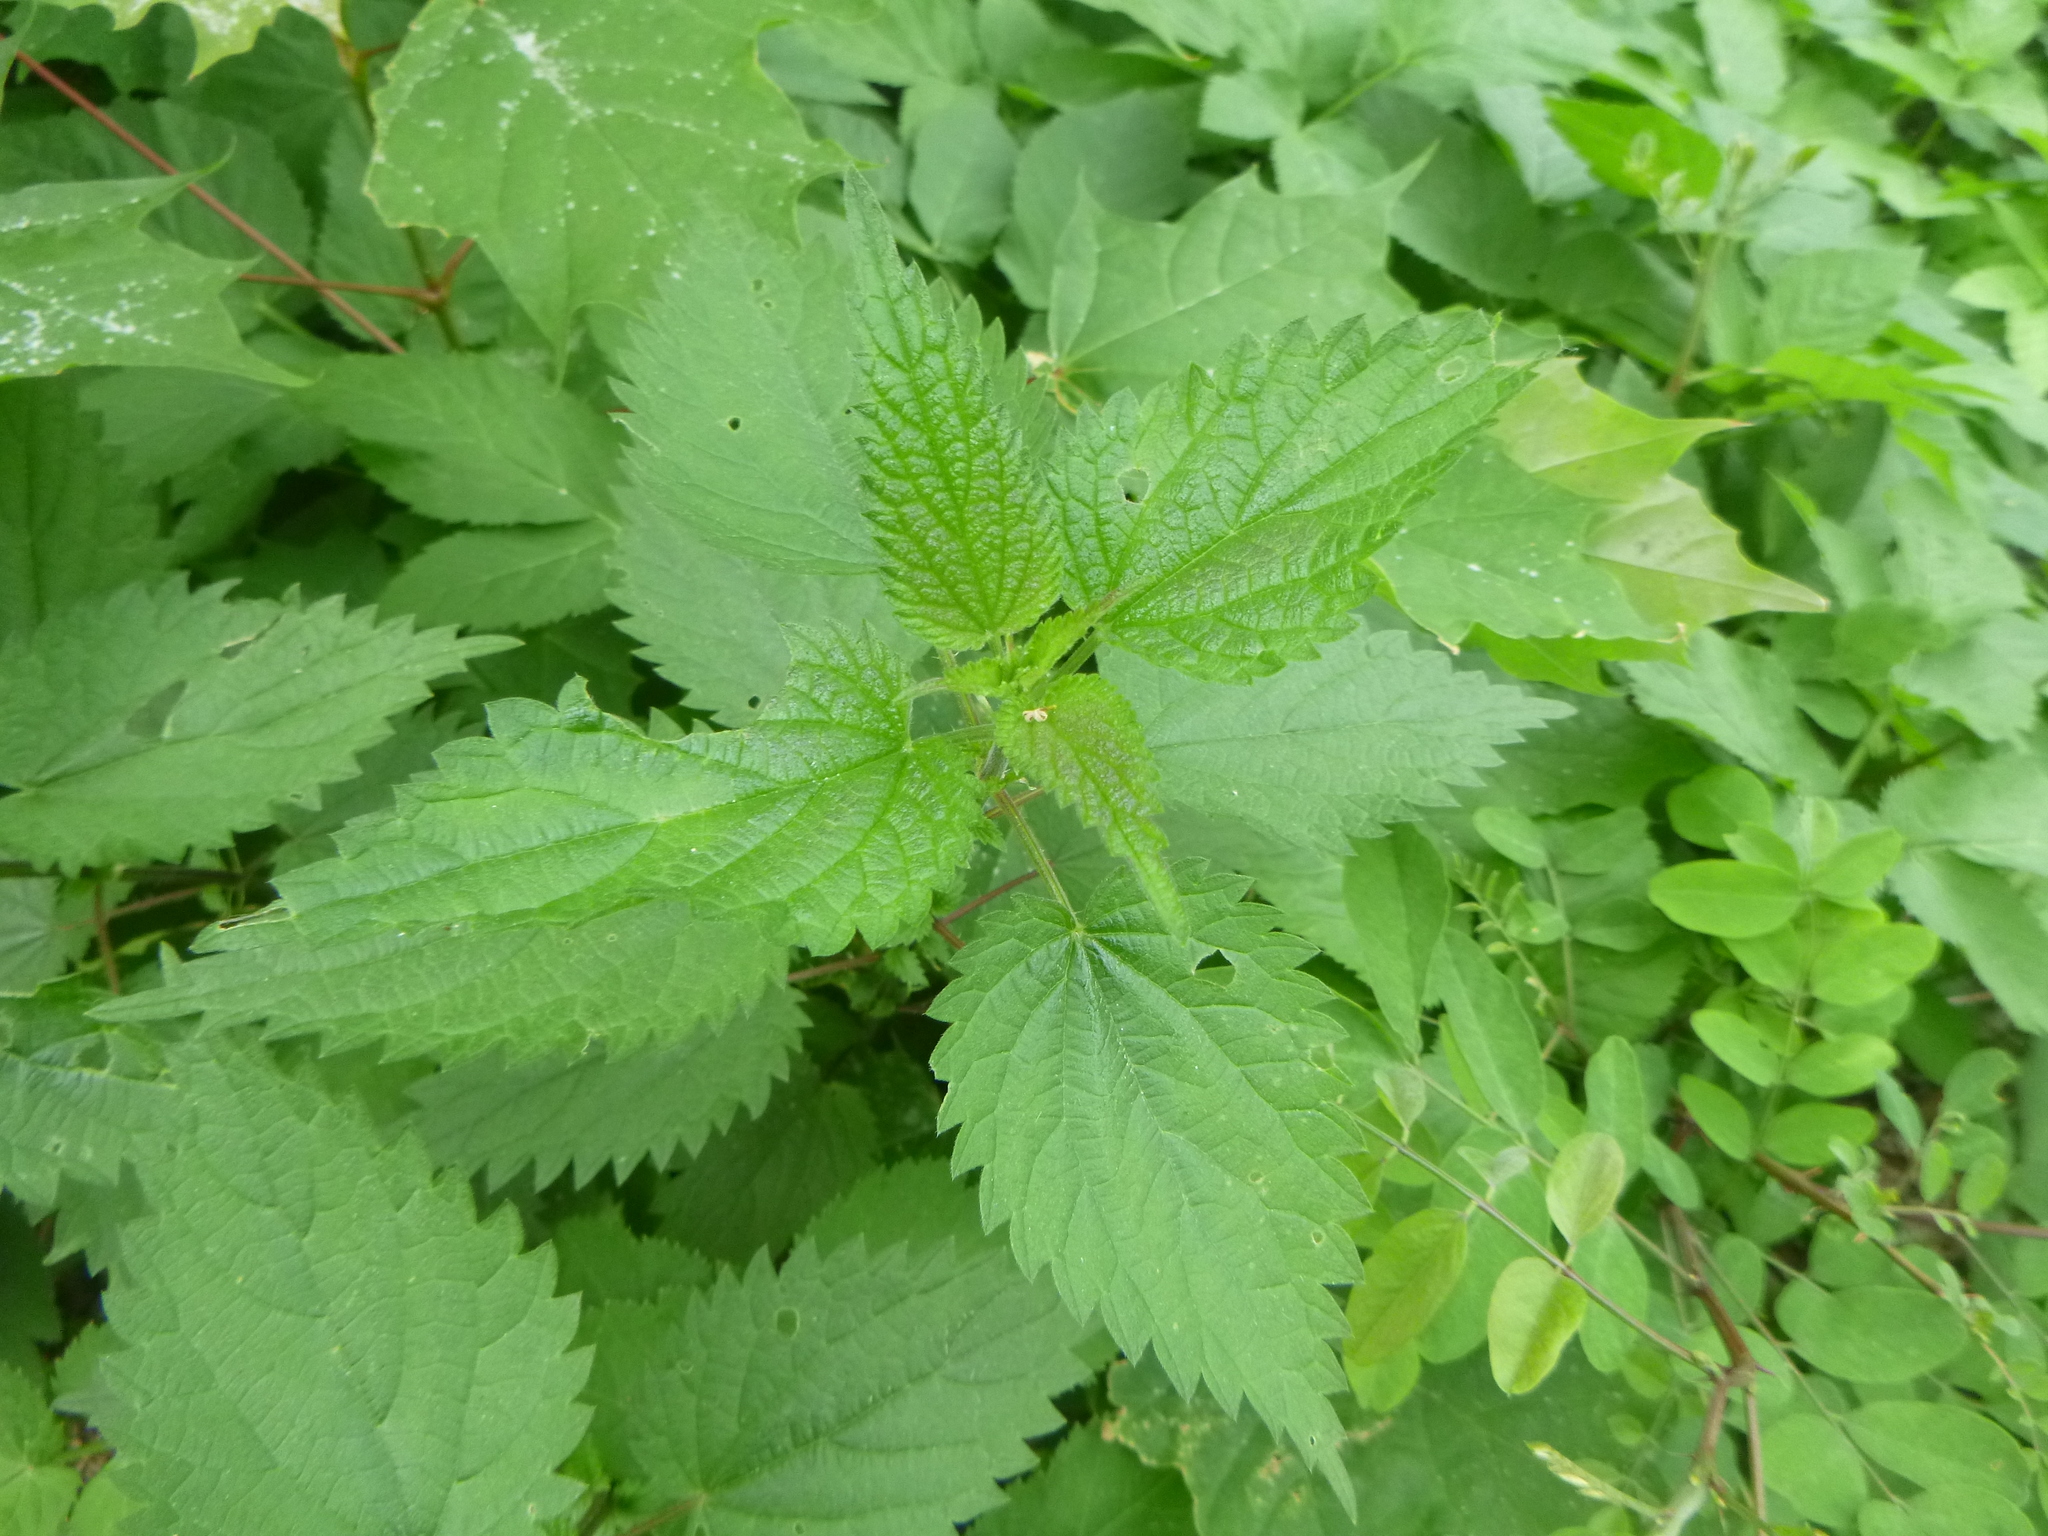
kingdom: Plantae
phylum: Tracheophyta
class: Magnoliopsida
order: Rosales
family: Urticaceae
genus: Urtica
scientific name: Urtica dioica
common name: Common nettle
